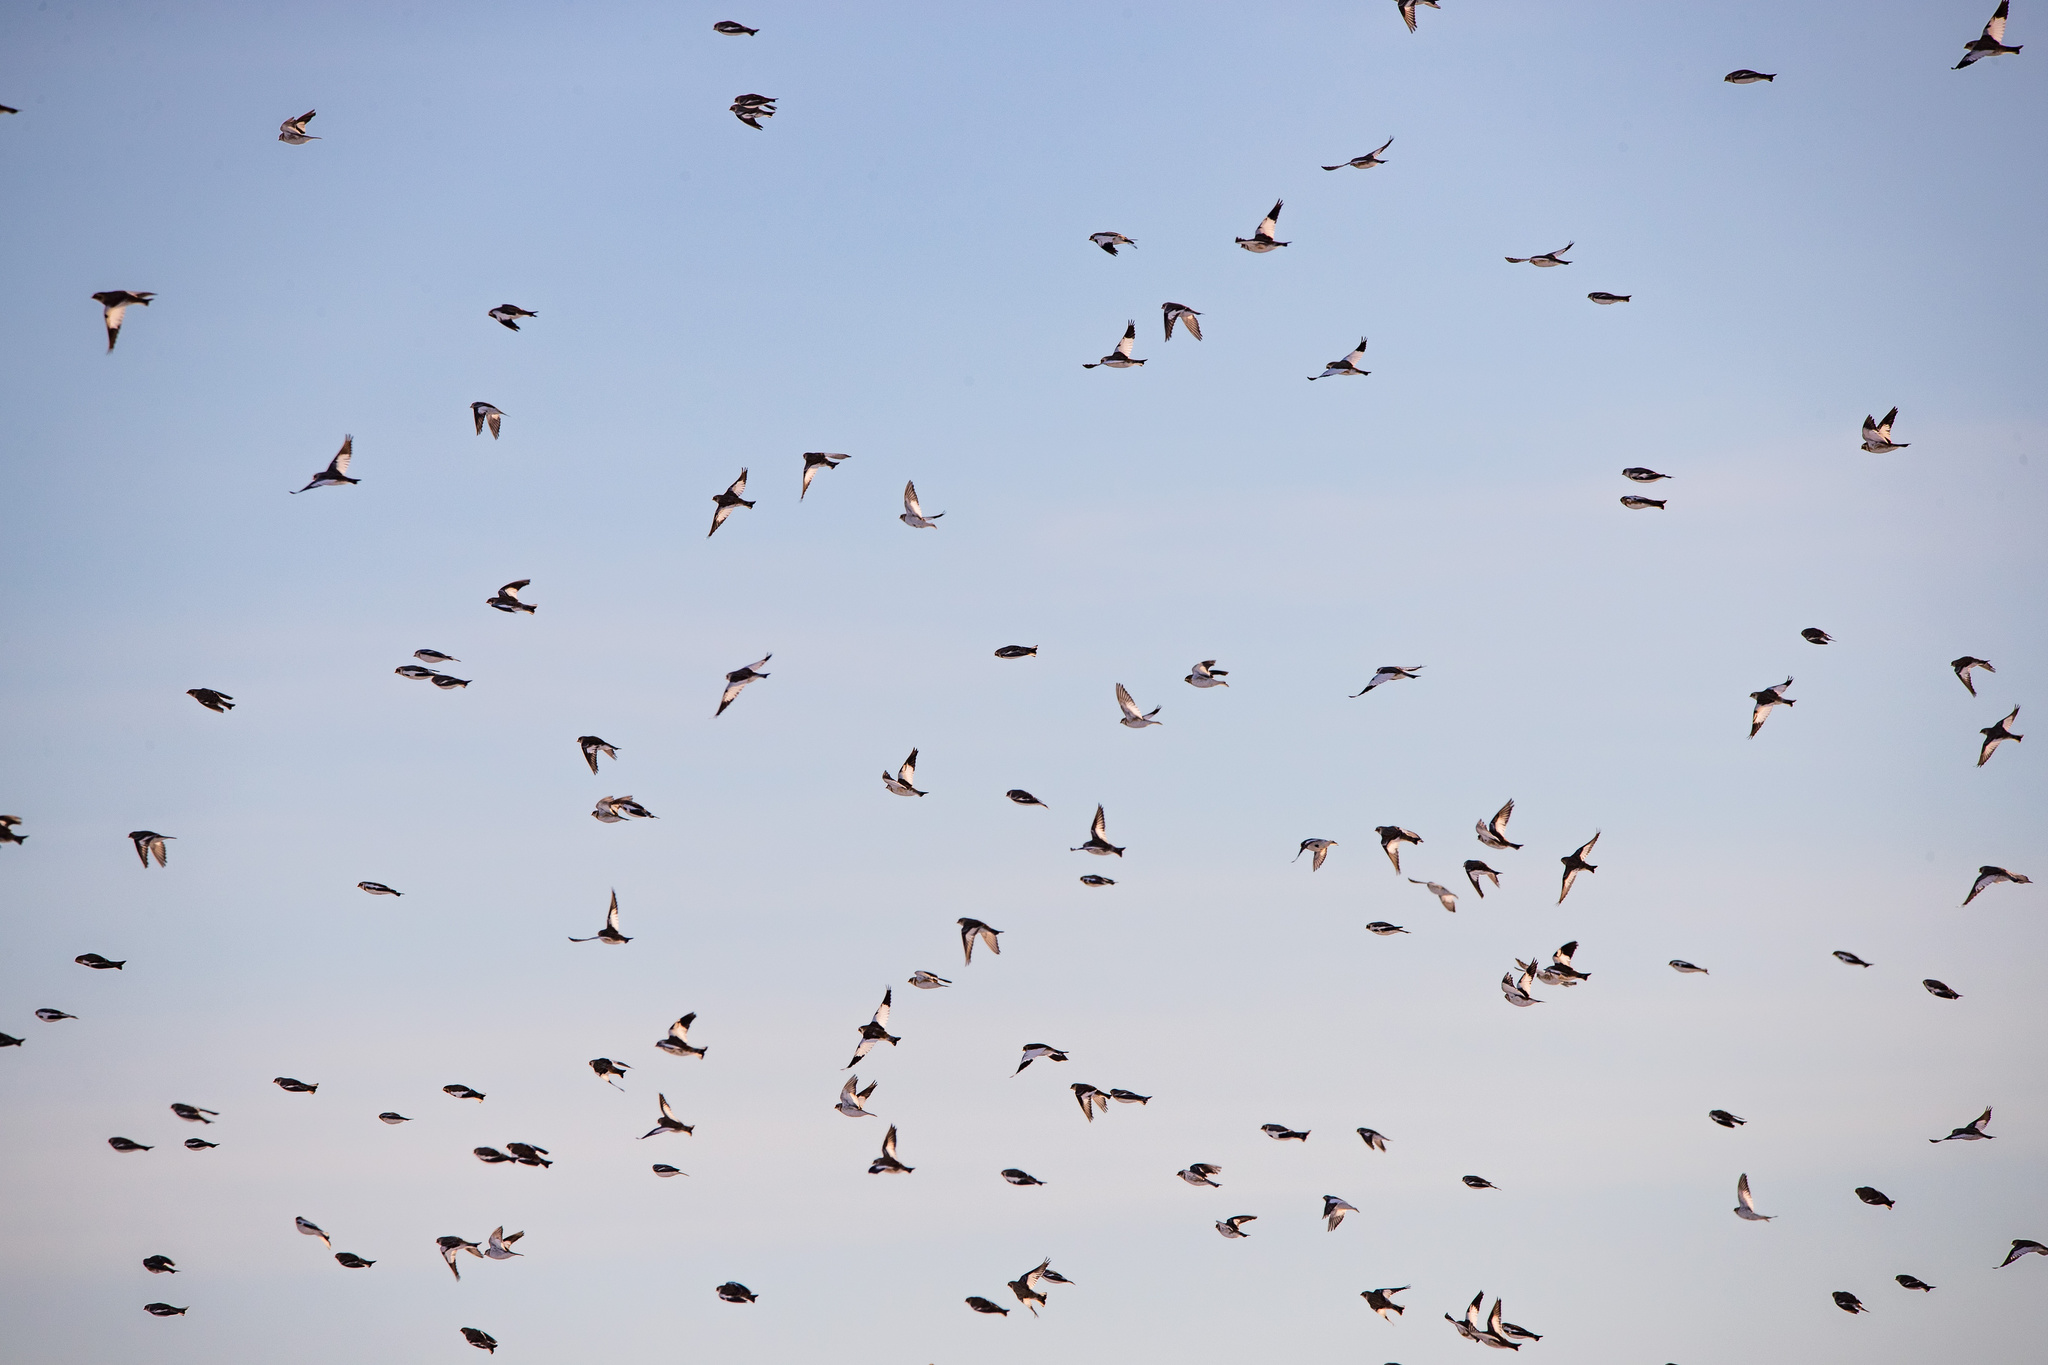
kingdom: Animalia
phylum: Chordata
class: Aves
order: Passeriformes
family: Calcariidae
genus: Plectrophenax
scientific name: Plectrophenax nivalis
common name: Snow bunting
